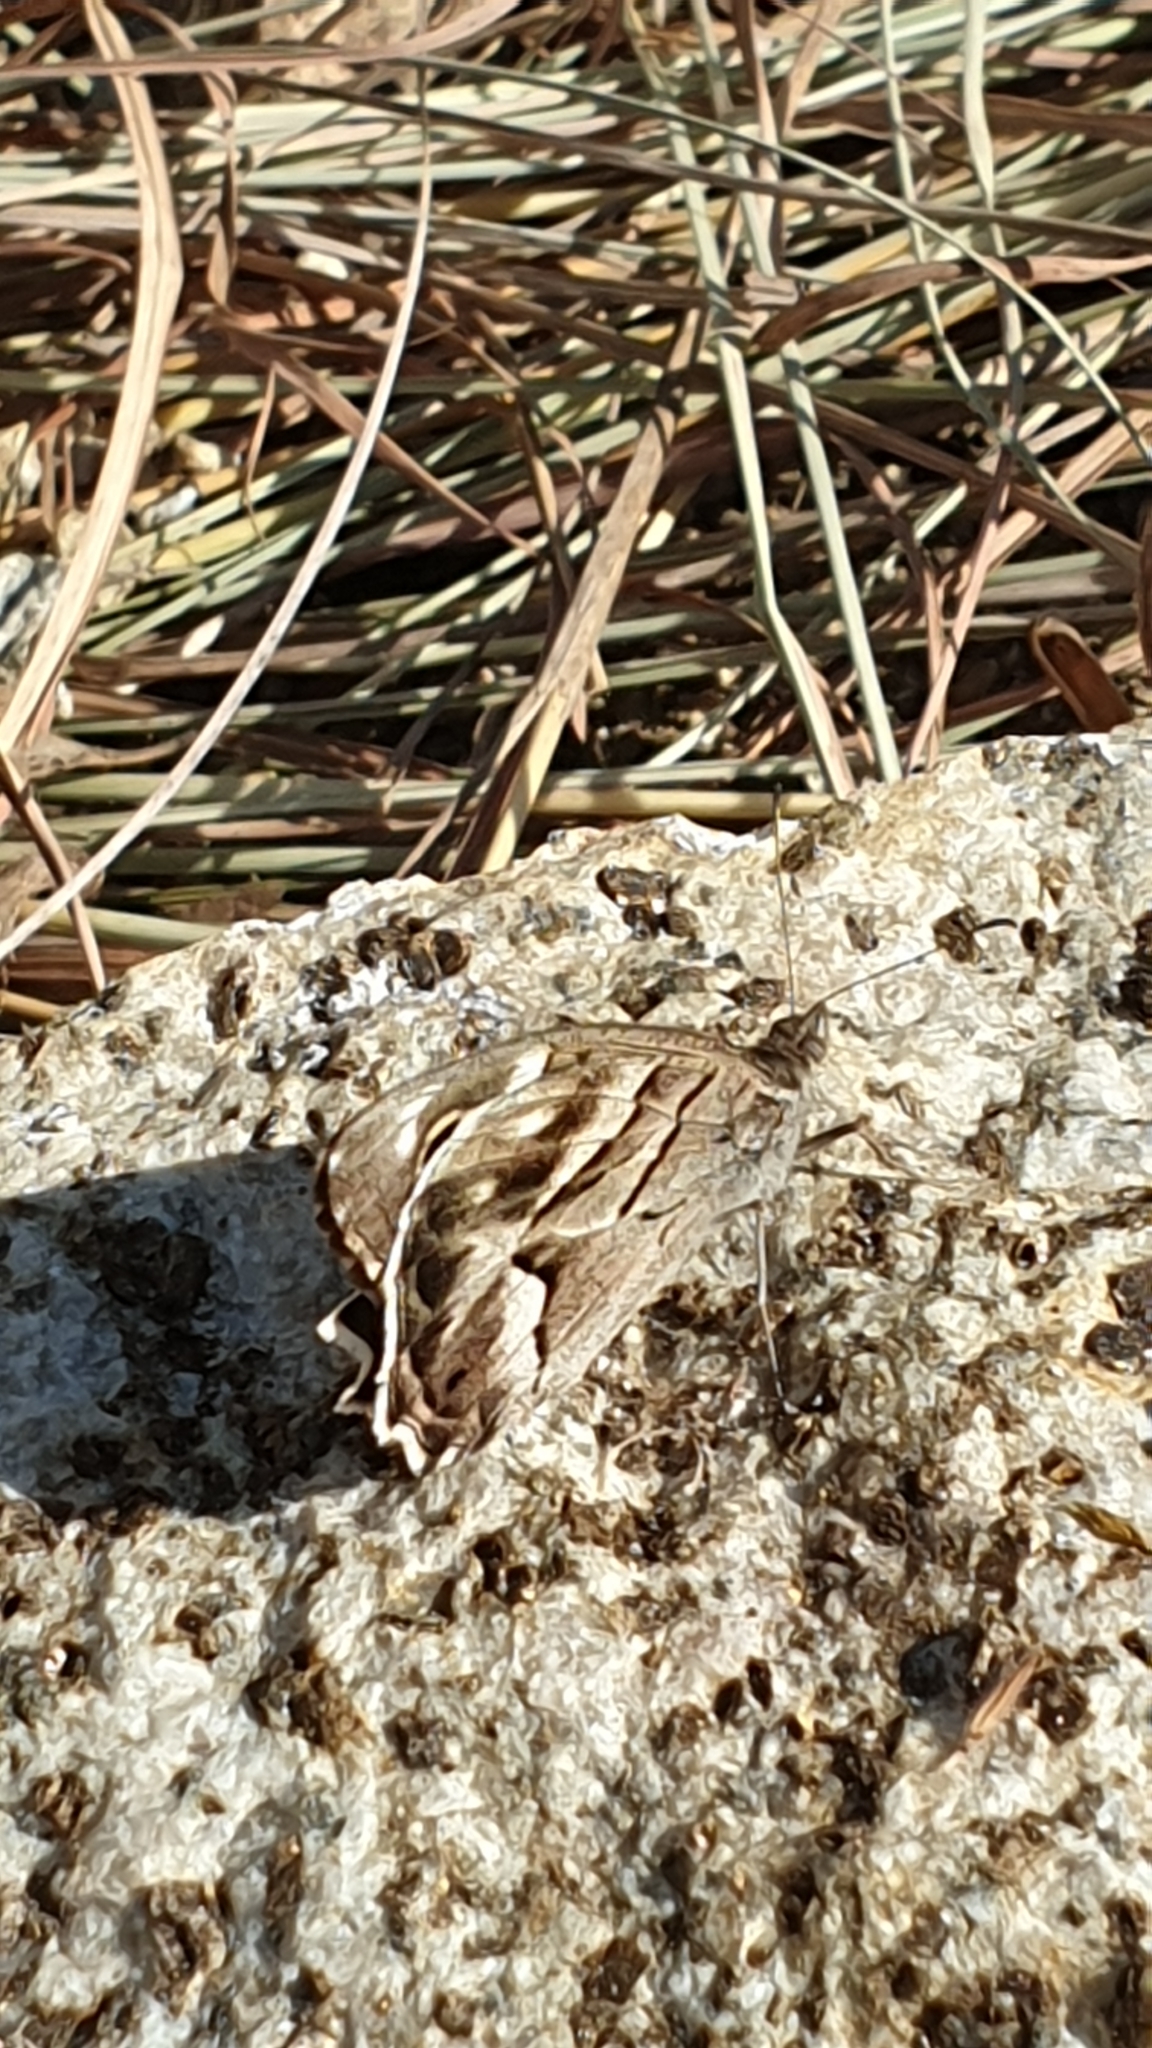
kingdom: Animalia
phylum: Arthropoda
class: Insecta
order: Lepidoptera
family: Nymphalidae
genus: Hipparchia
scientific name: Hipparchia fidia
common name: Striped grayling
